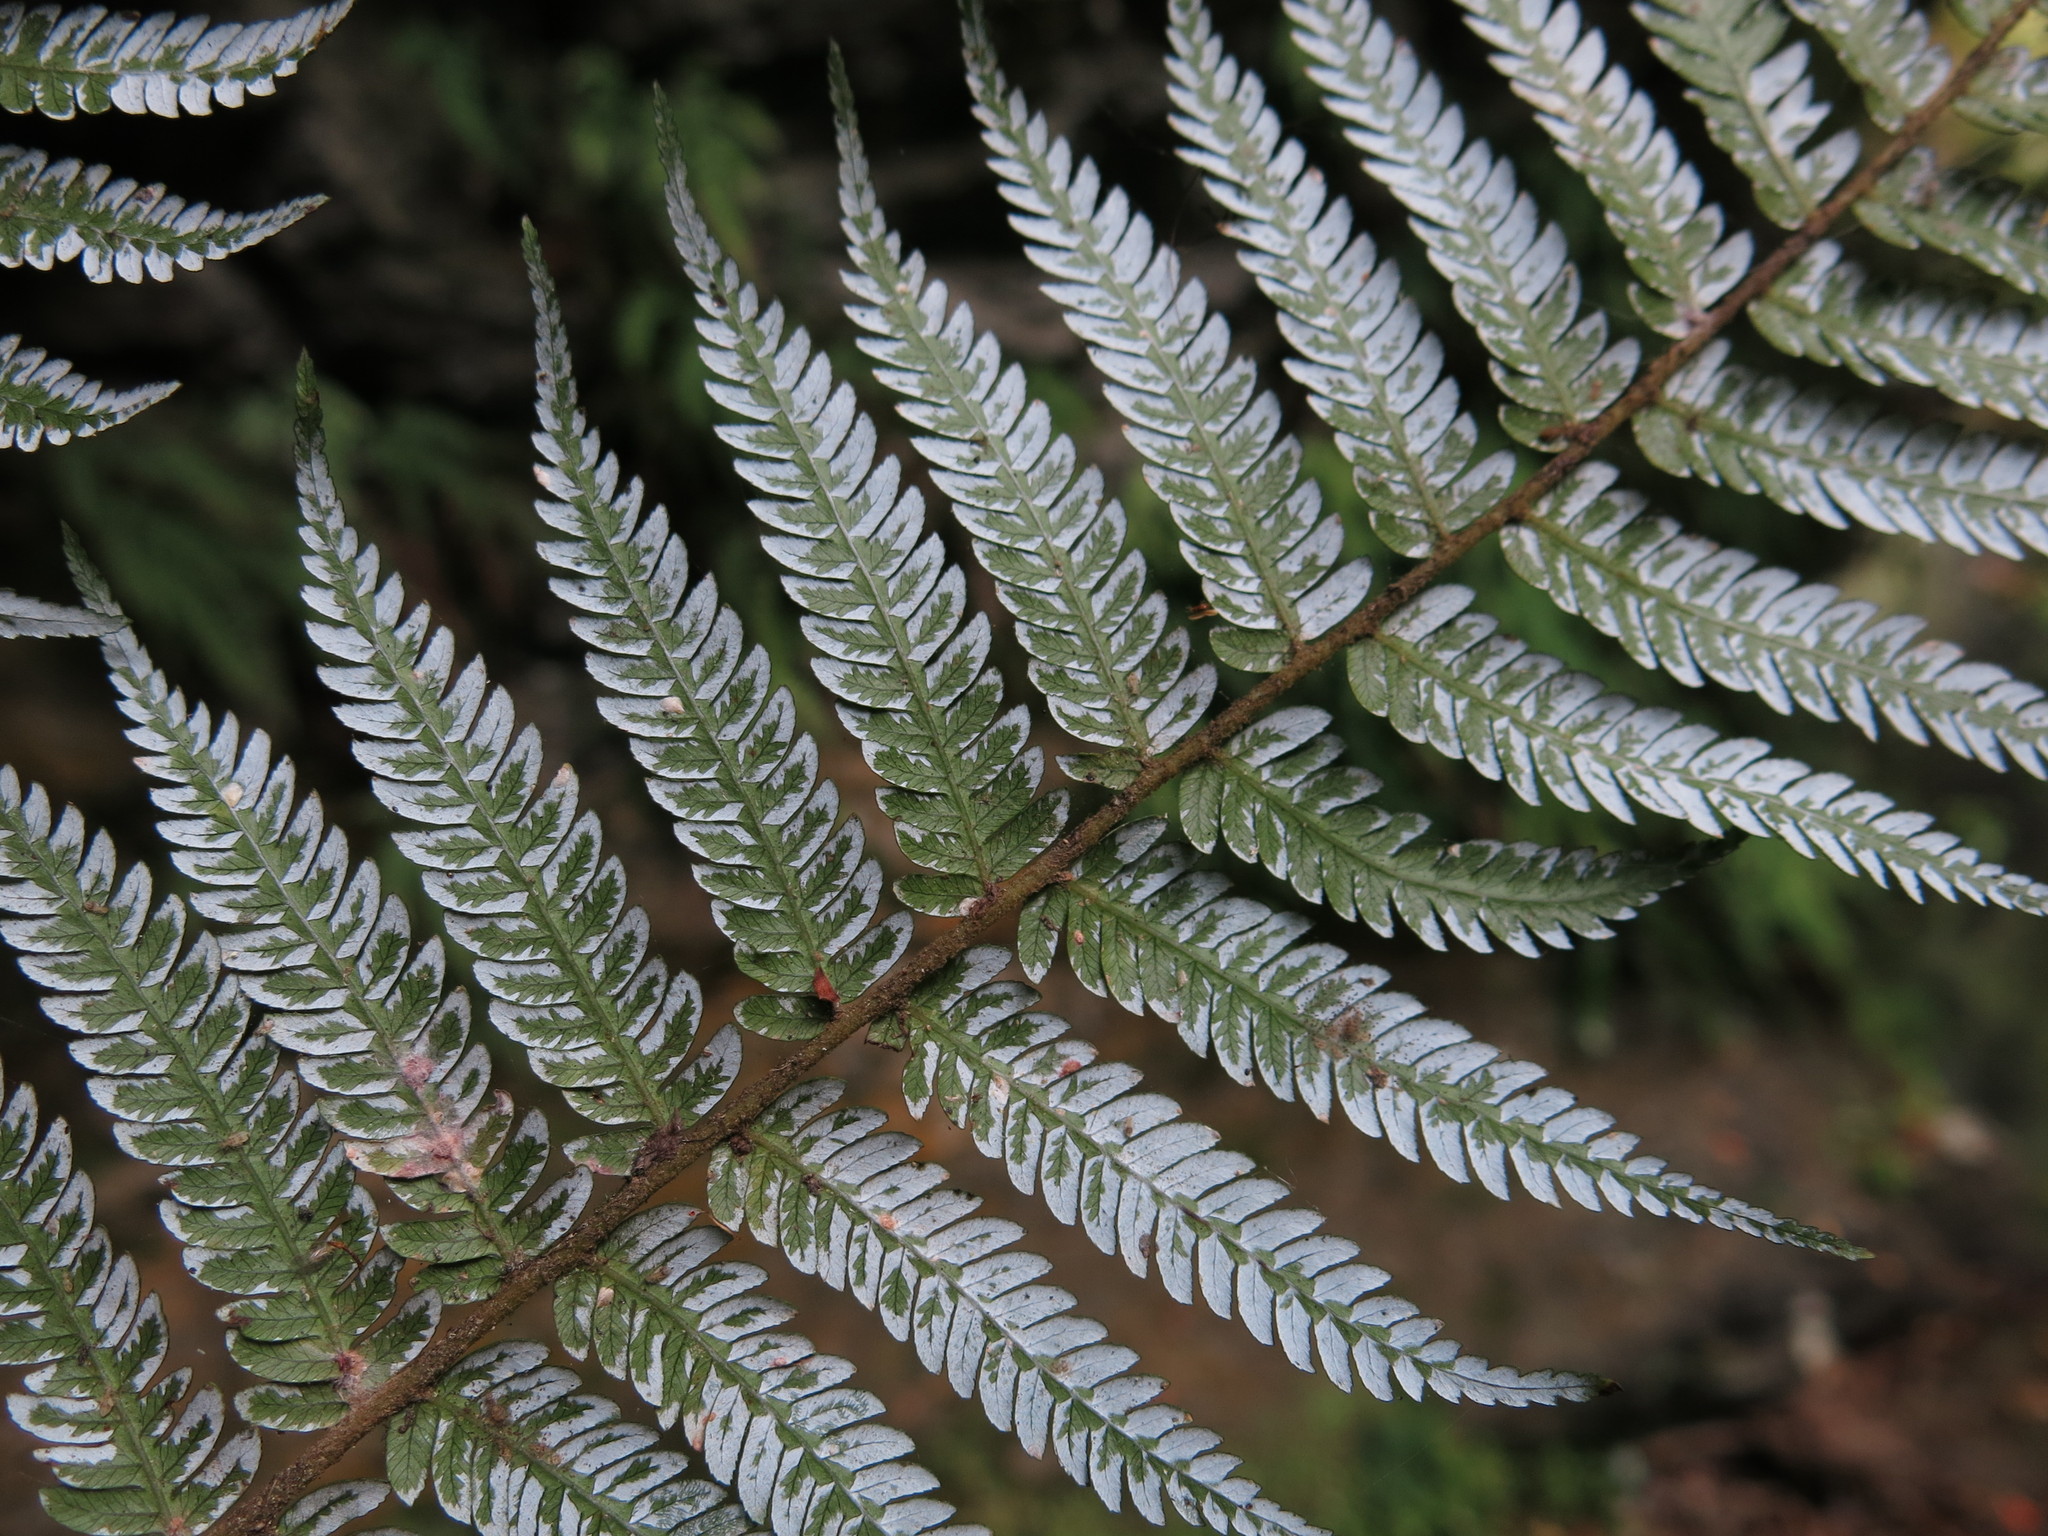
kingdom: Plantae
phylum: Tracheophyta
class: Polypodiopsida
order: Cyatheales
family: Cyatheaceae
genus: Alsophila
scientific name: Alsophila dealbata
